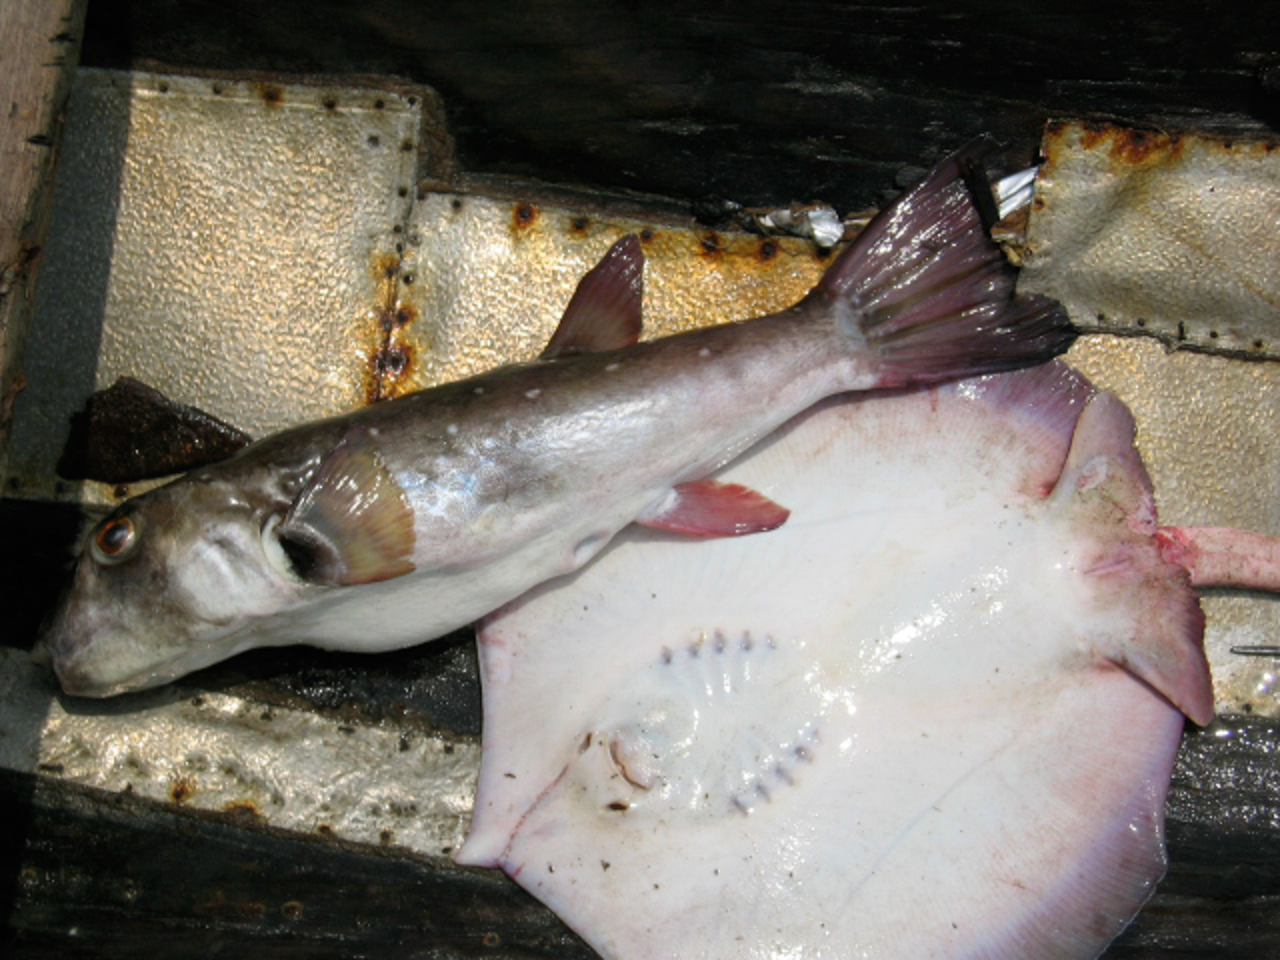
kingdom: Animalia
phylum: Chordata
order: Tetraodontiformes
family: Tetraodontidae
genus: Ephippion
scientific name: Ephippion guttifer
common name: Common puffer
